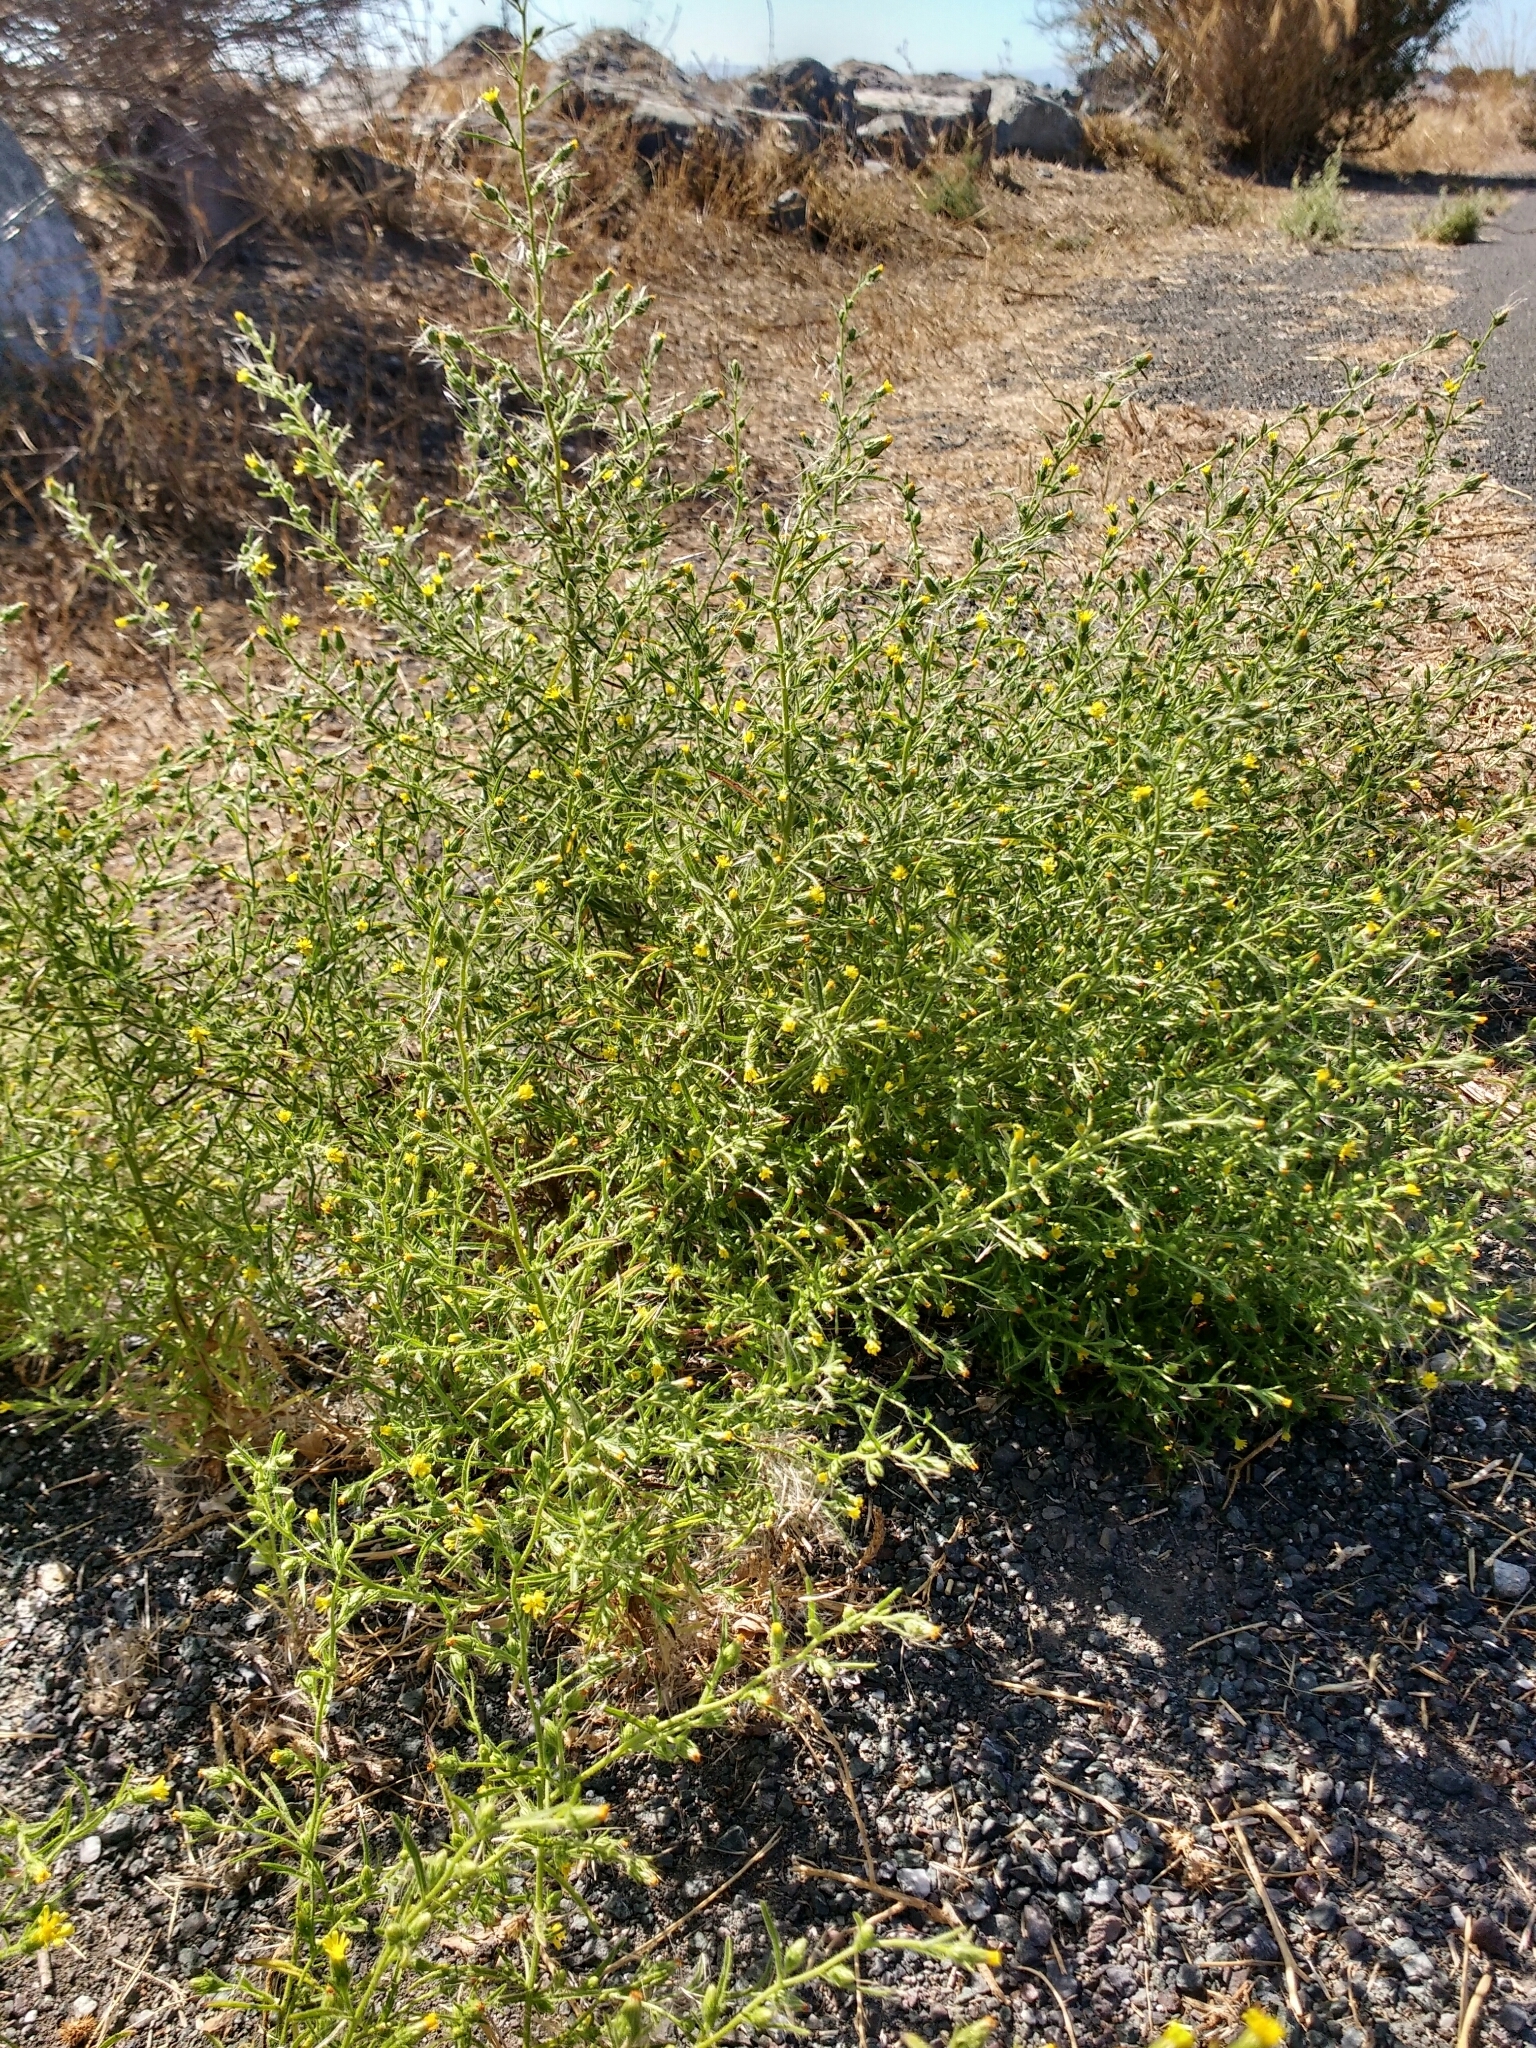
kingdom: Plantae
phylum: Tracheophyta
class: Magnoliopsida
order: Asterales
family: Asteraceae
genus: Dittrichia
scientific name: Dittrichia graveolens
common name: Stinking fleabane
